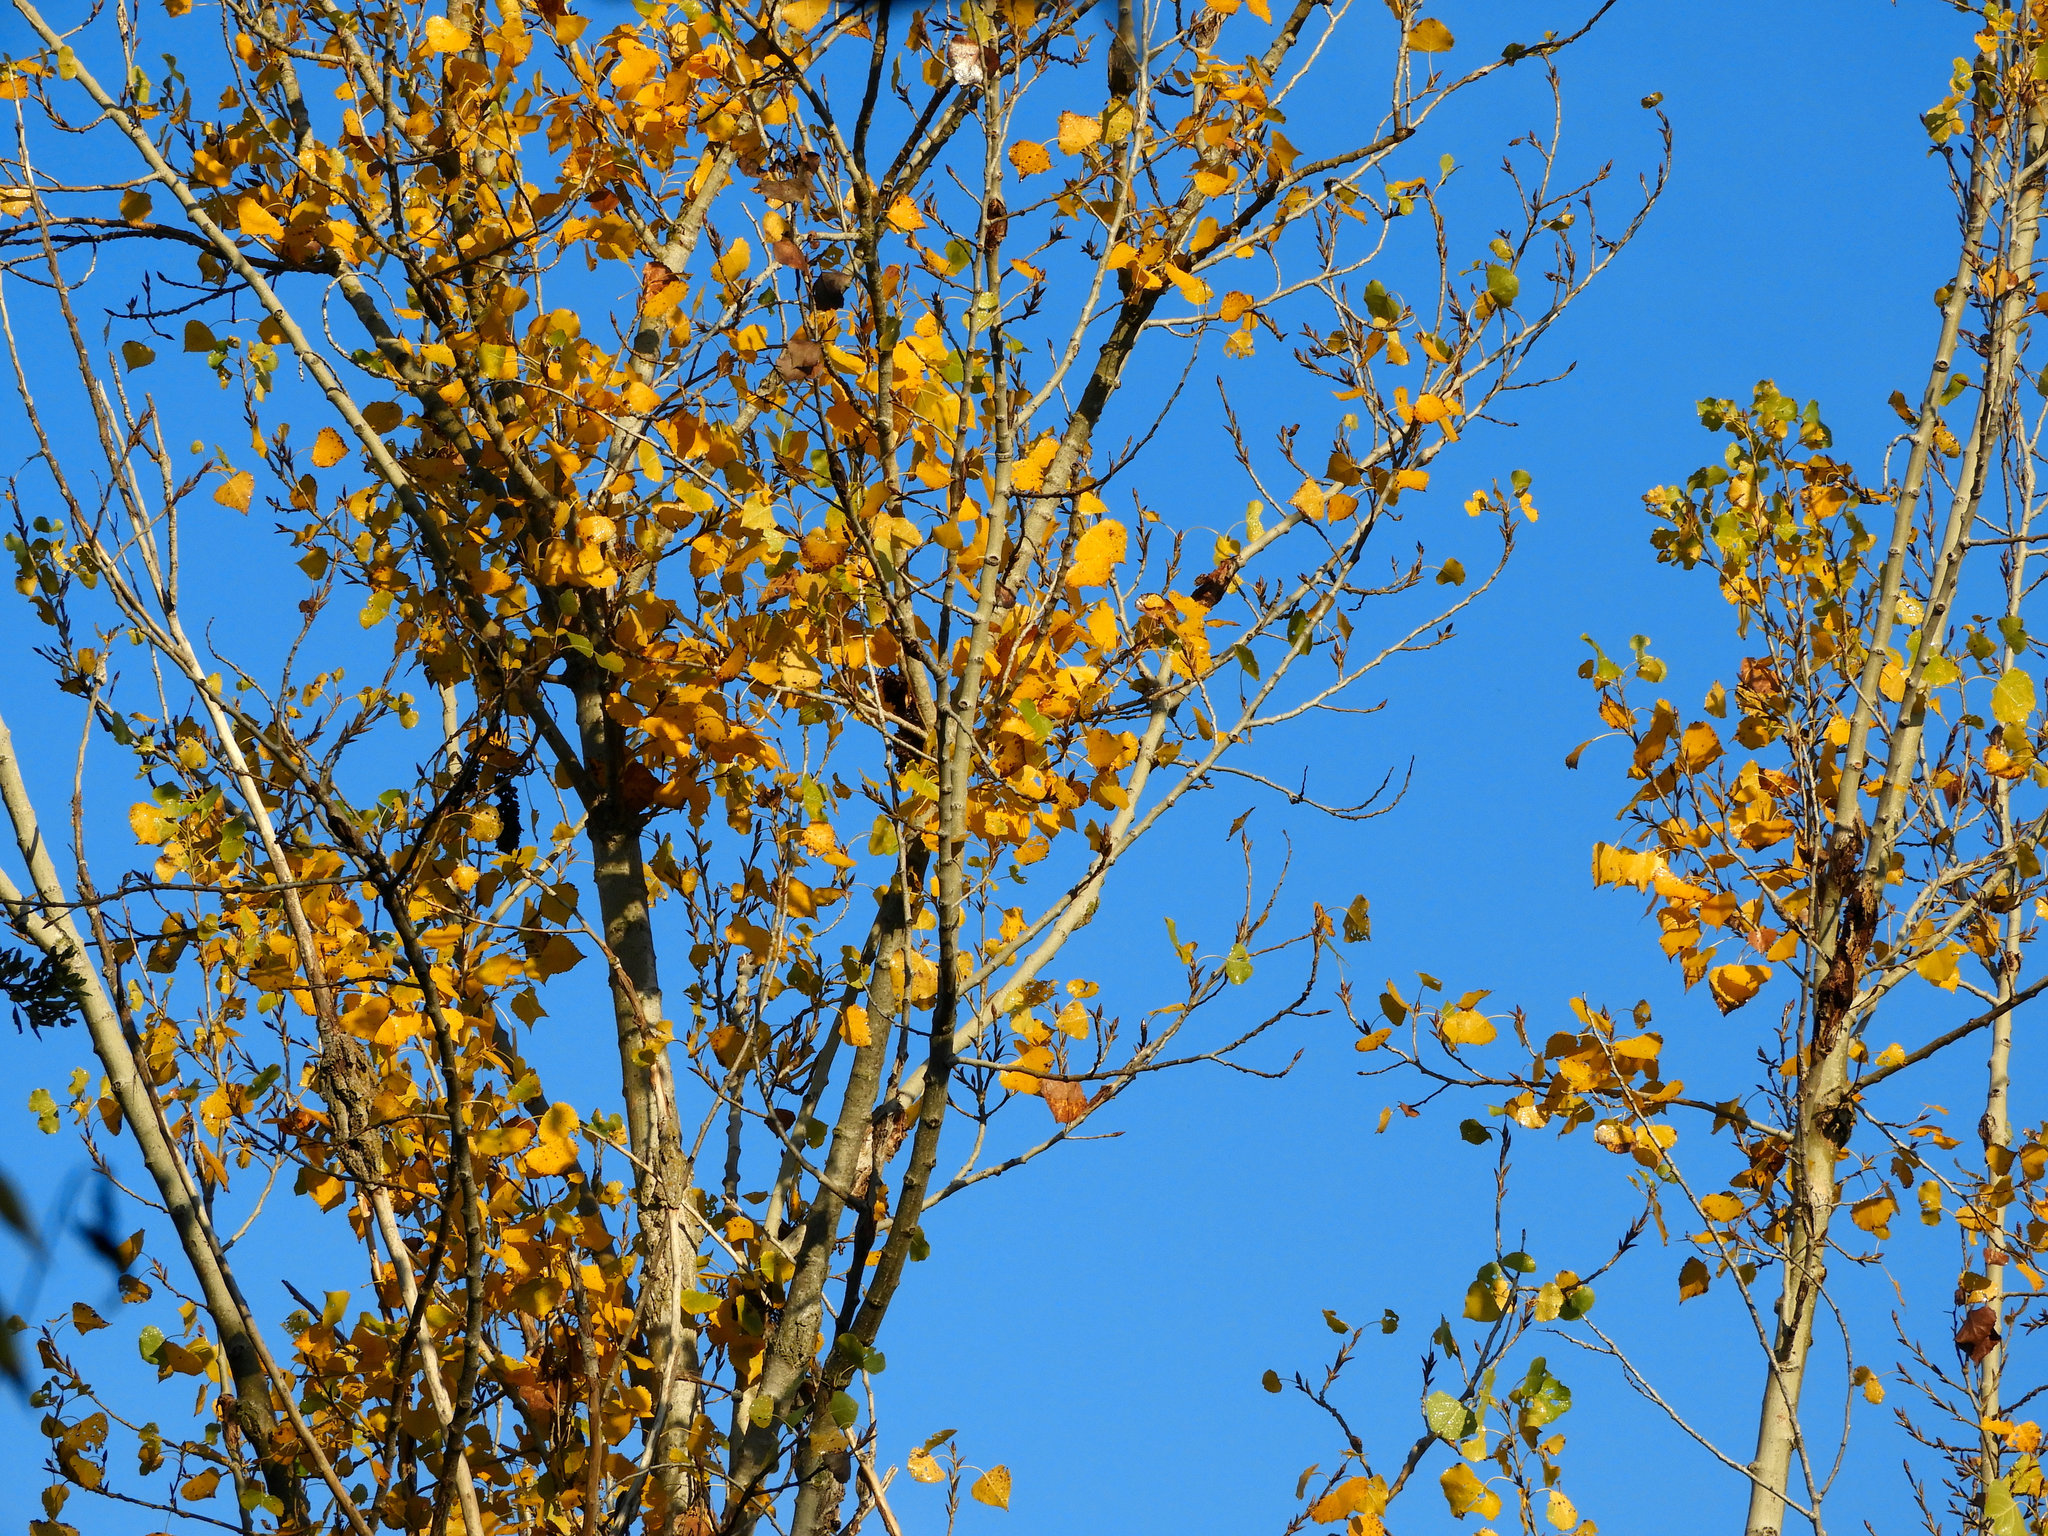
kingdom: Plantae
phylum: Tracheophyta
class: Magnoliopsida
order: Malpighiales
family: Salicaceae
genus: Populus
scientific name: Populus fremontii
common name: Fremont's cottonwood
